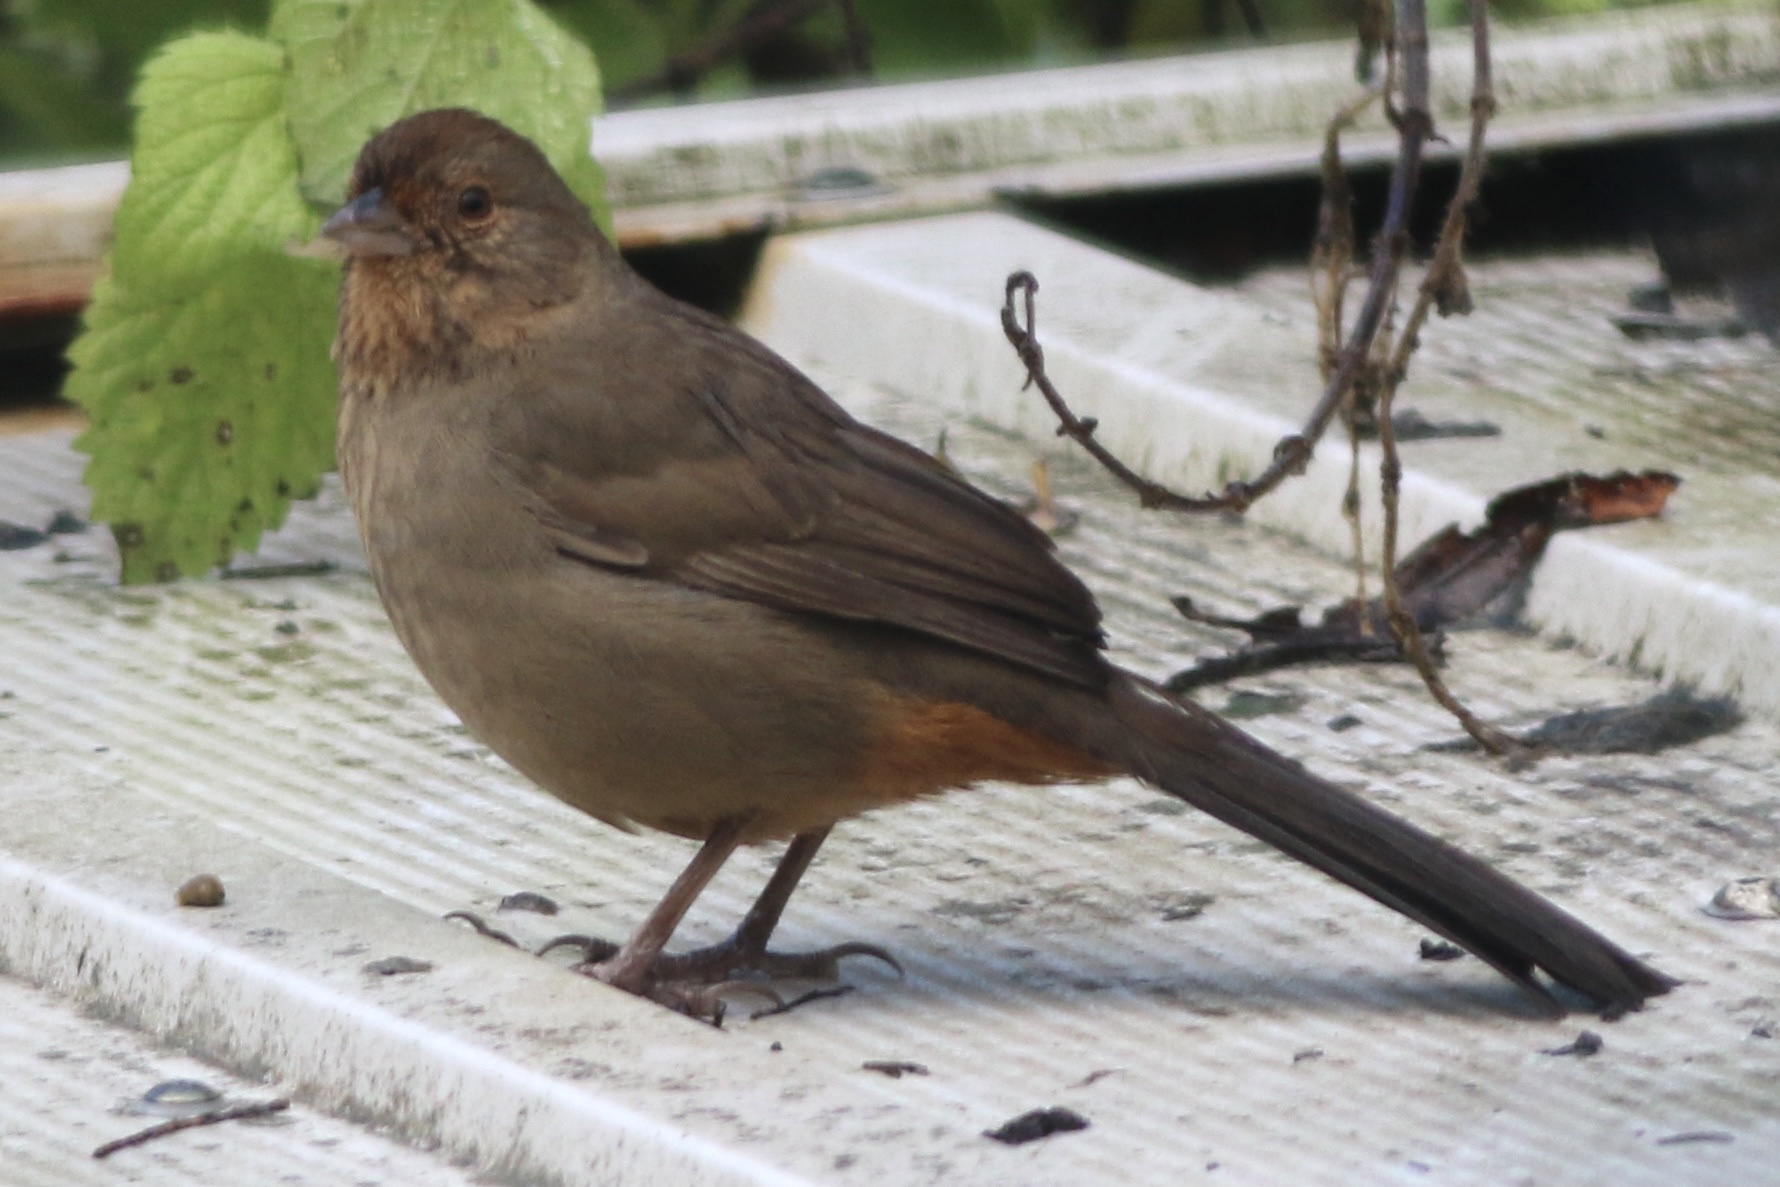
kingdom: Animalia
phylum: Chordata
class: Aves
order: Passeriformes
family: Passerellidae
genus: Melozone
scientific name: Melozone crissalis
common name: California towhee
